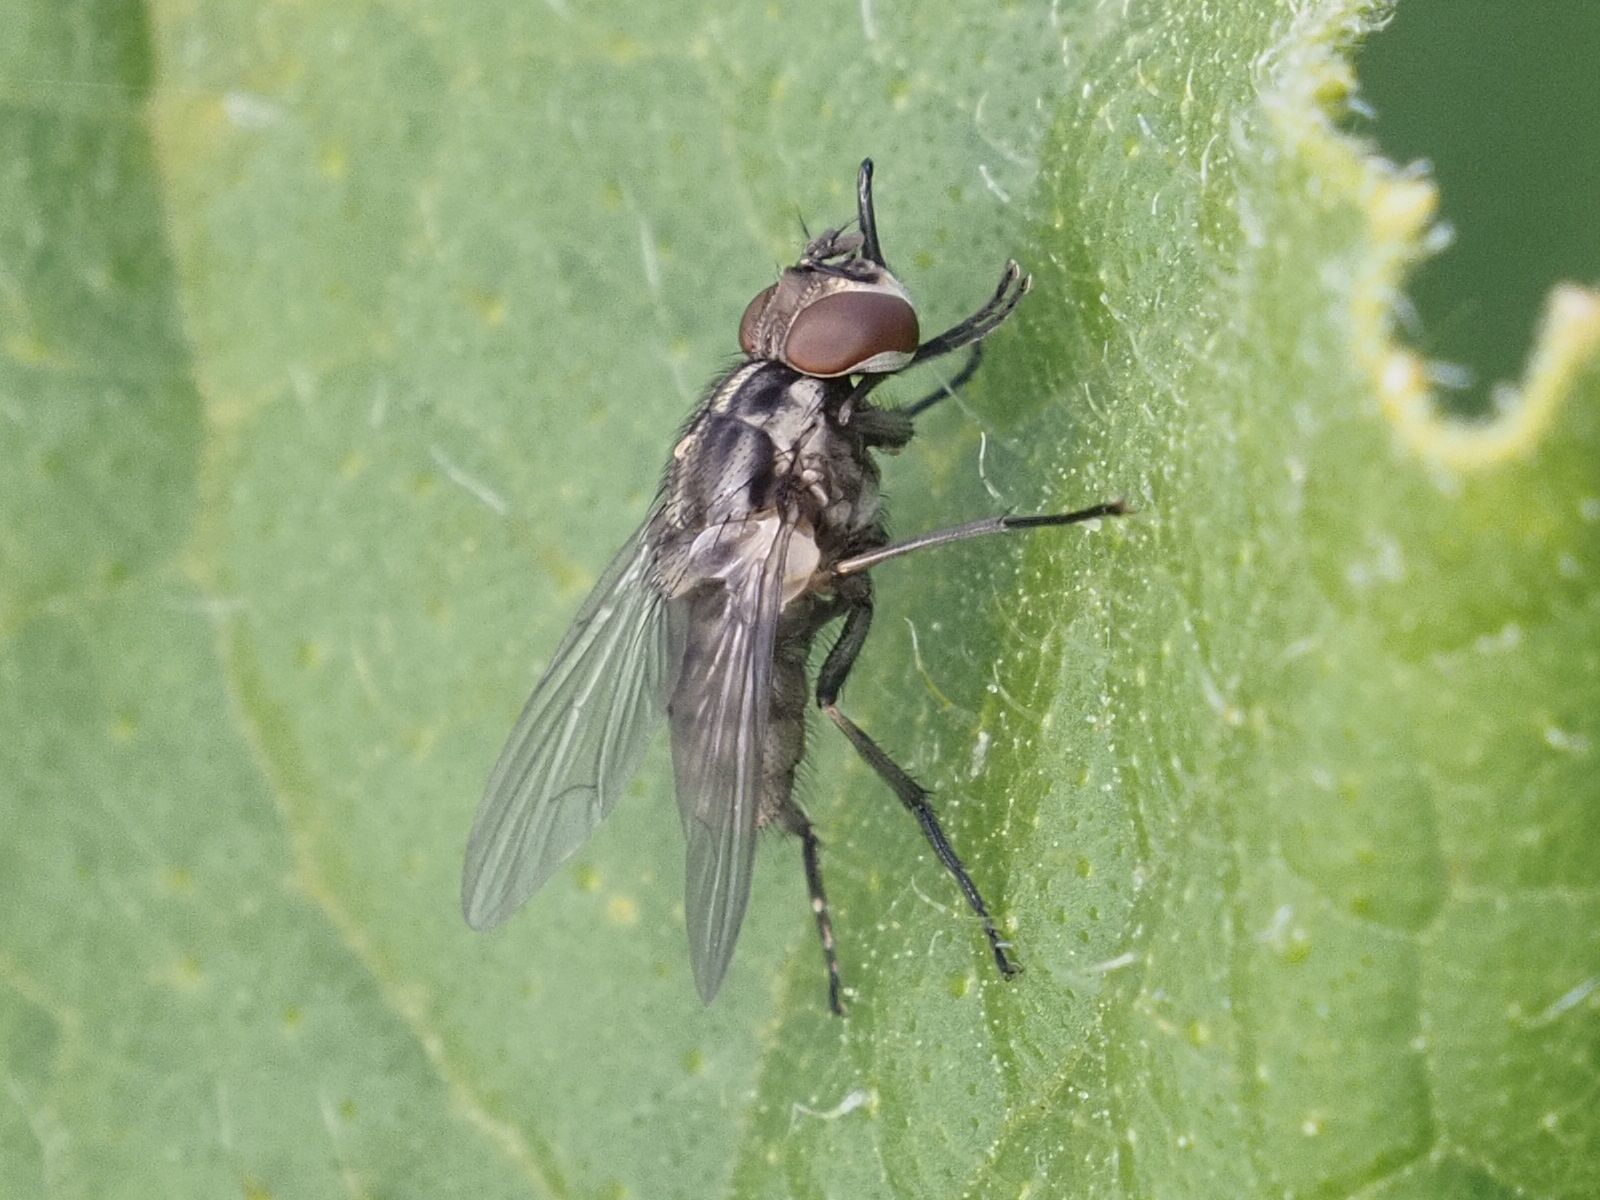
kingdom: Animalia
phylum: Arthropoda
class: Insecta
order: Diptera
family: Muscidae
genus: Stomoxys
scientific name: Stomoxys calcitrans
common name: Stable fly
